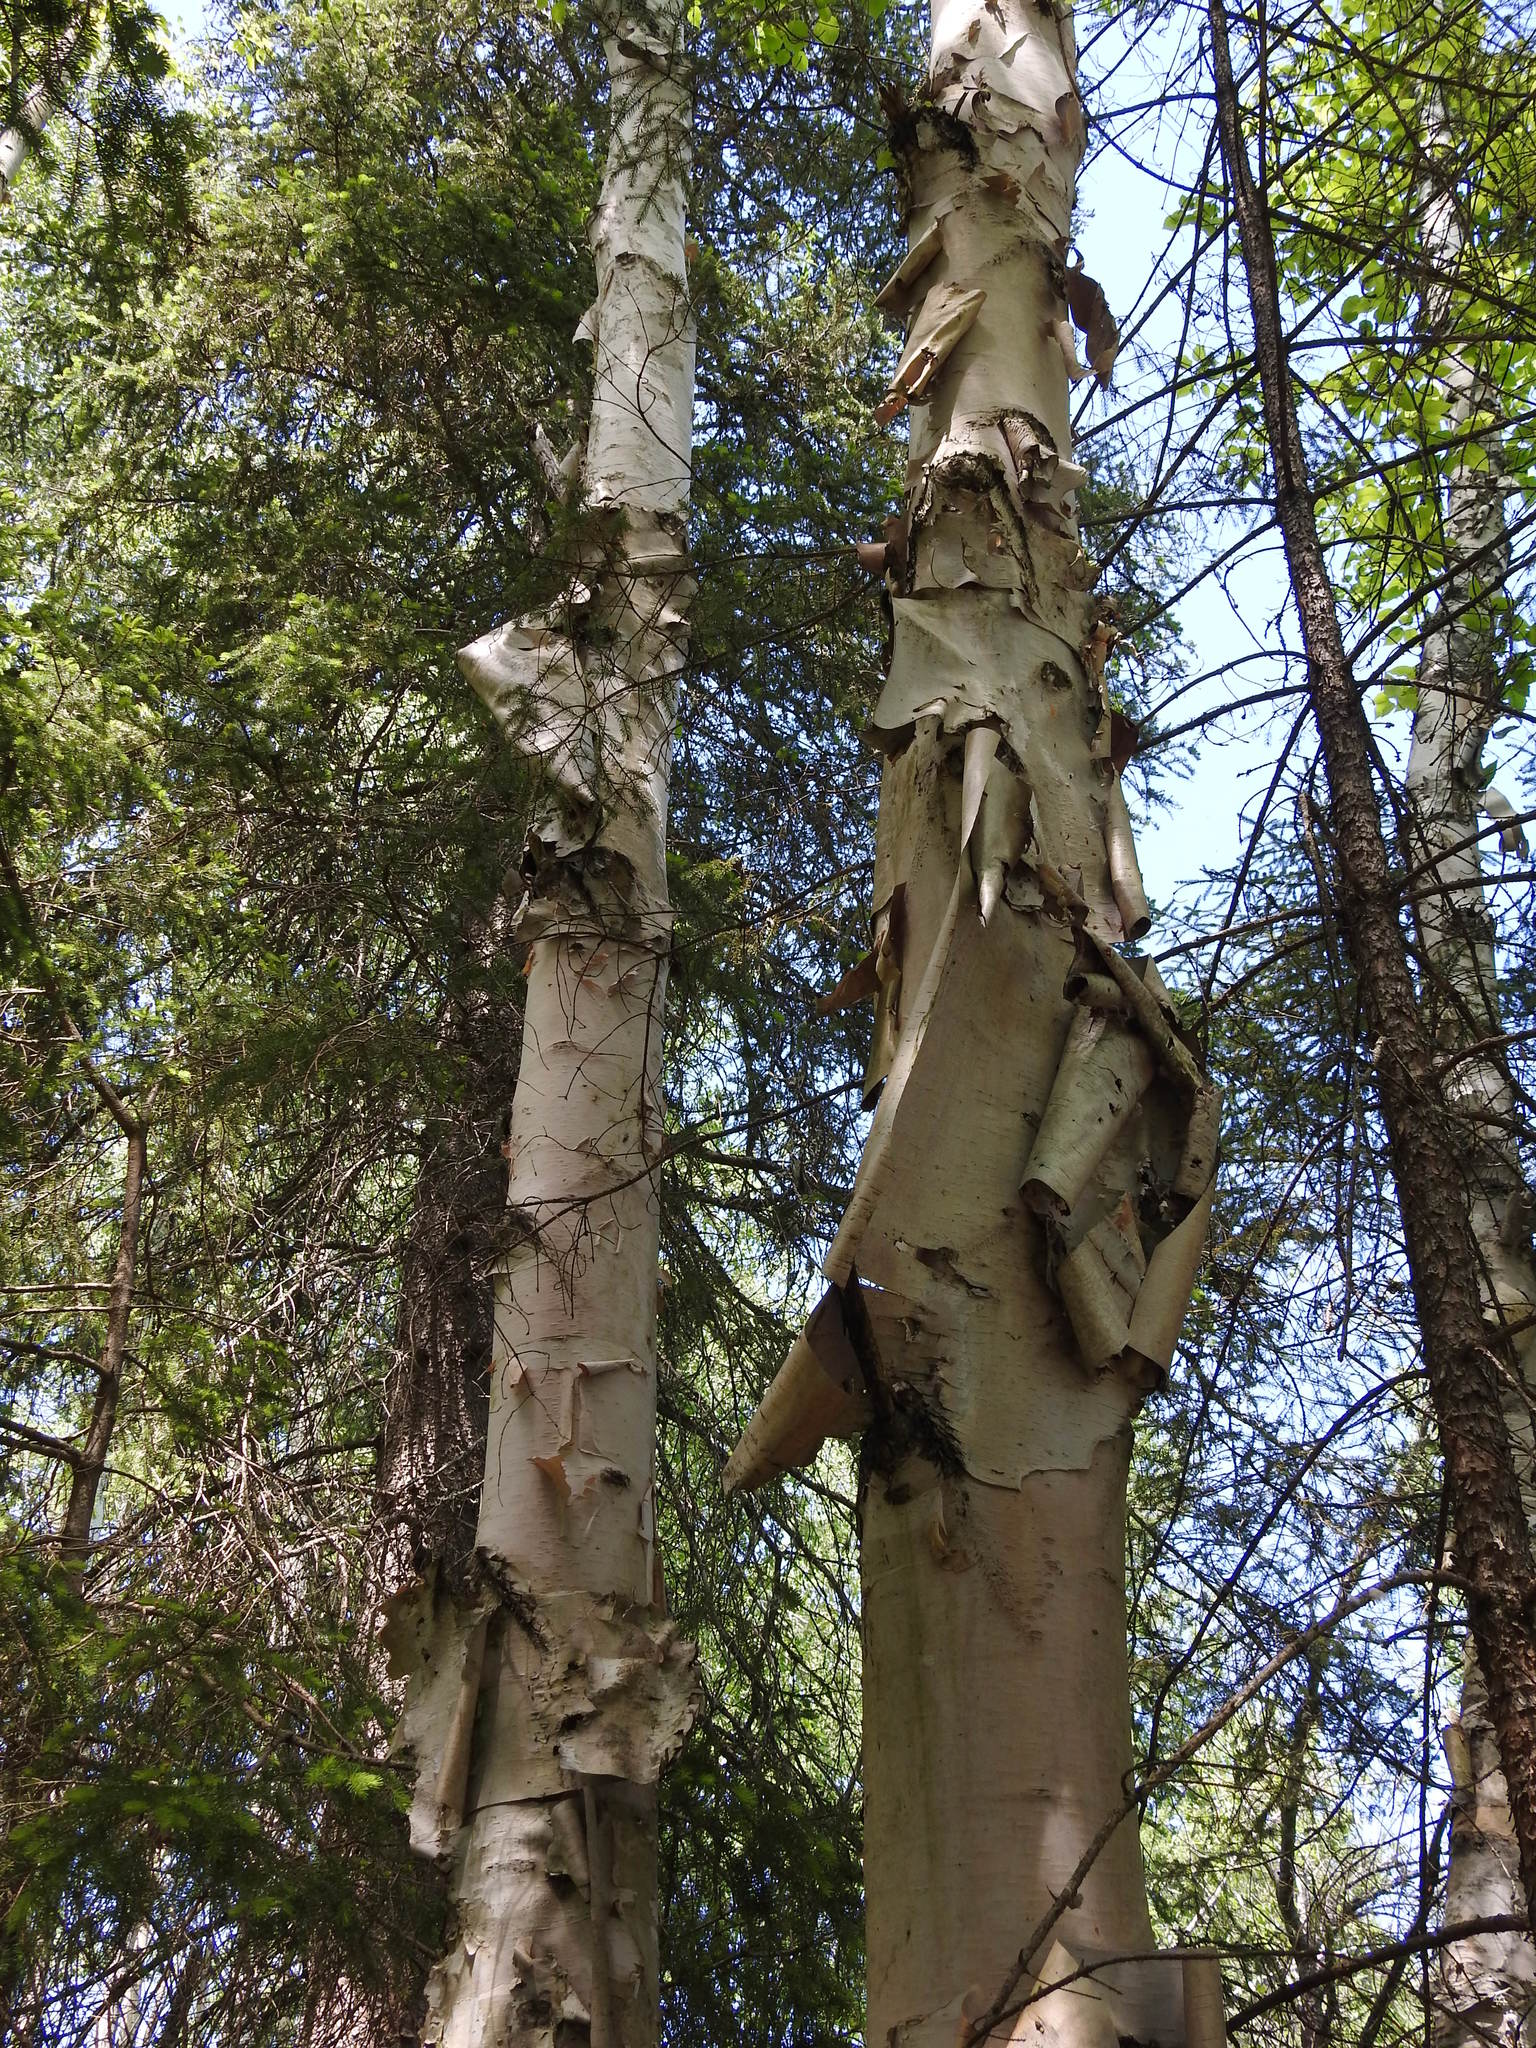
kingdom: Plantae
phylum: Tracheophyta
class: Magnoliopsida
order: Fagales
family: Betulaceae
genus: Betula
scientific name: Betula papyrifera
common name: Paper birch
